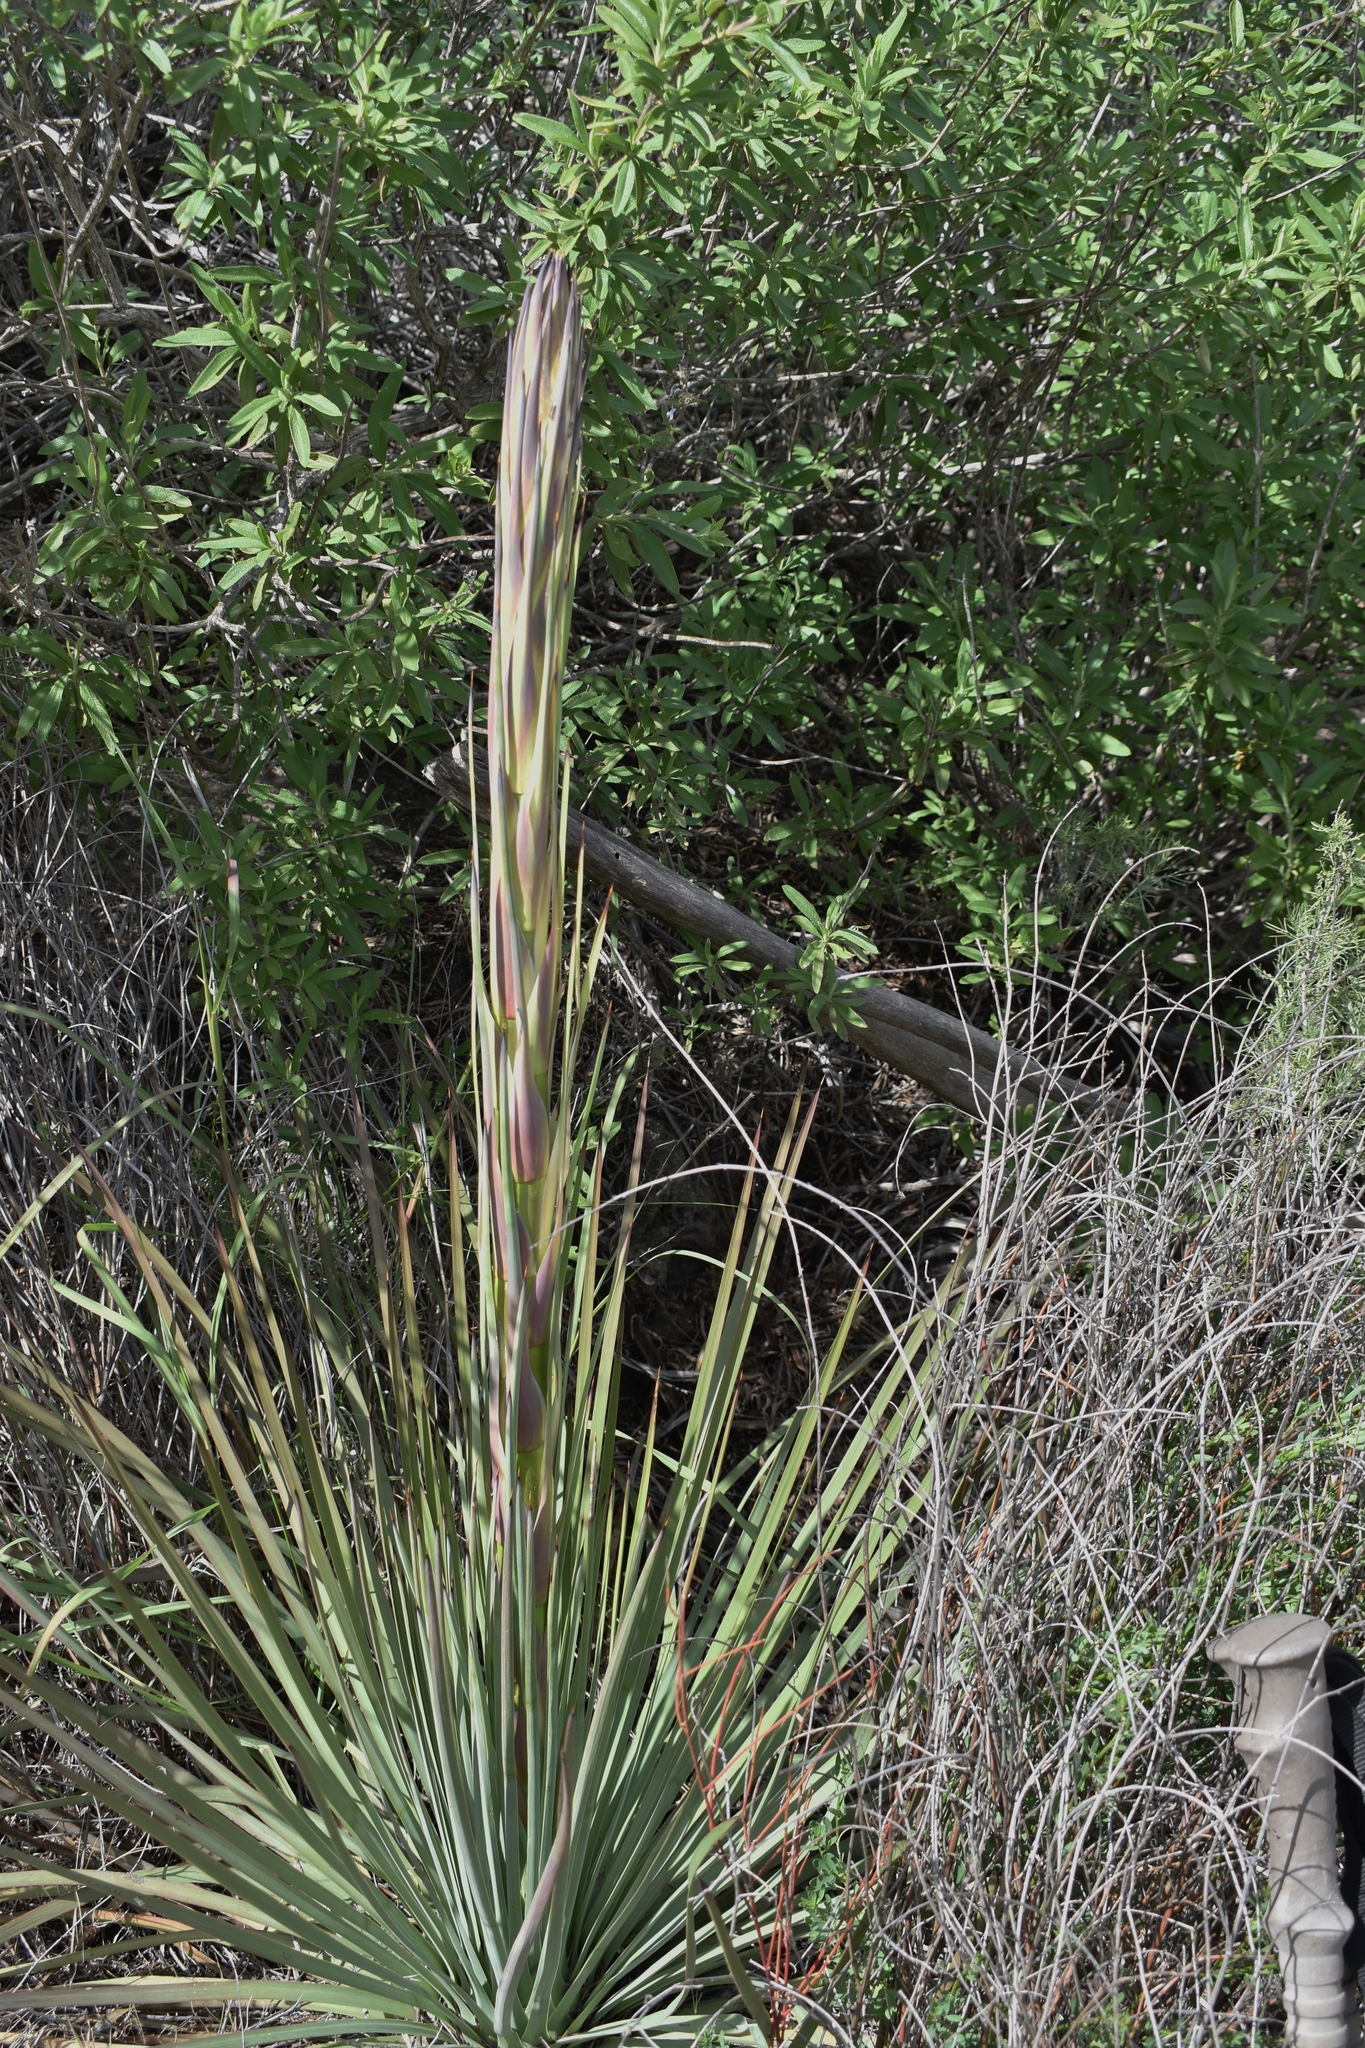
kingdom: Plantae
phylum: Tracheophyta
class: Liliopsida
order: Asparagales
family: Asparagaceae
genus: Hesperoyucca
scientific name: Hesperoyucca whipplei
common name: Our lord's-candle
